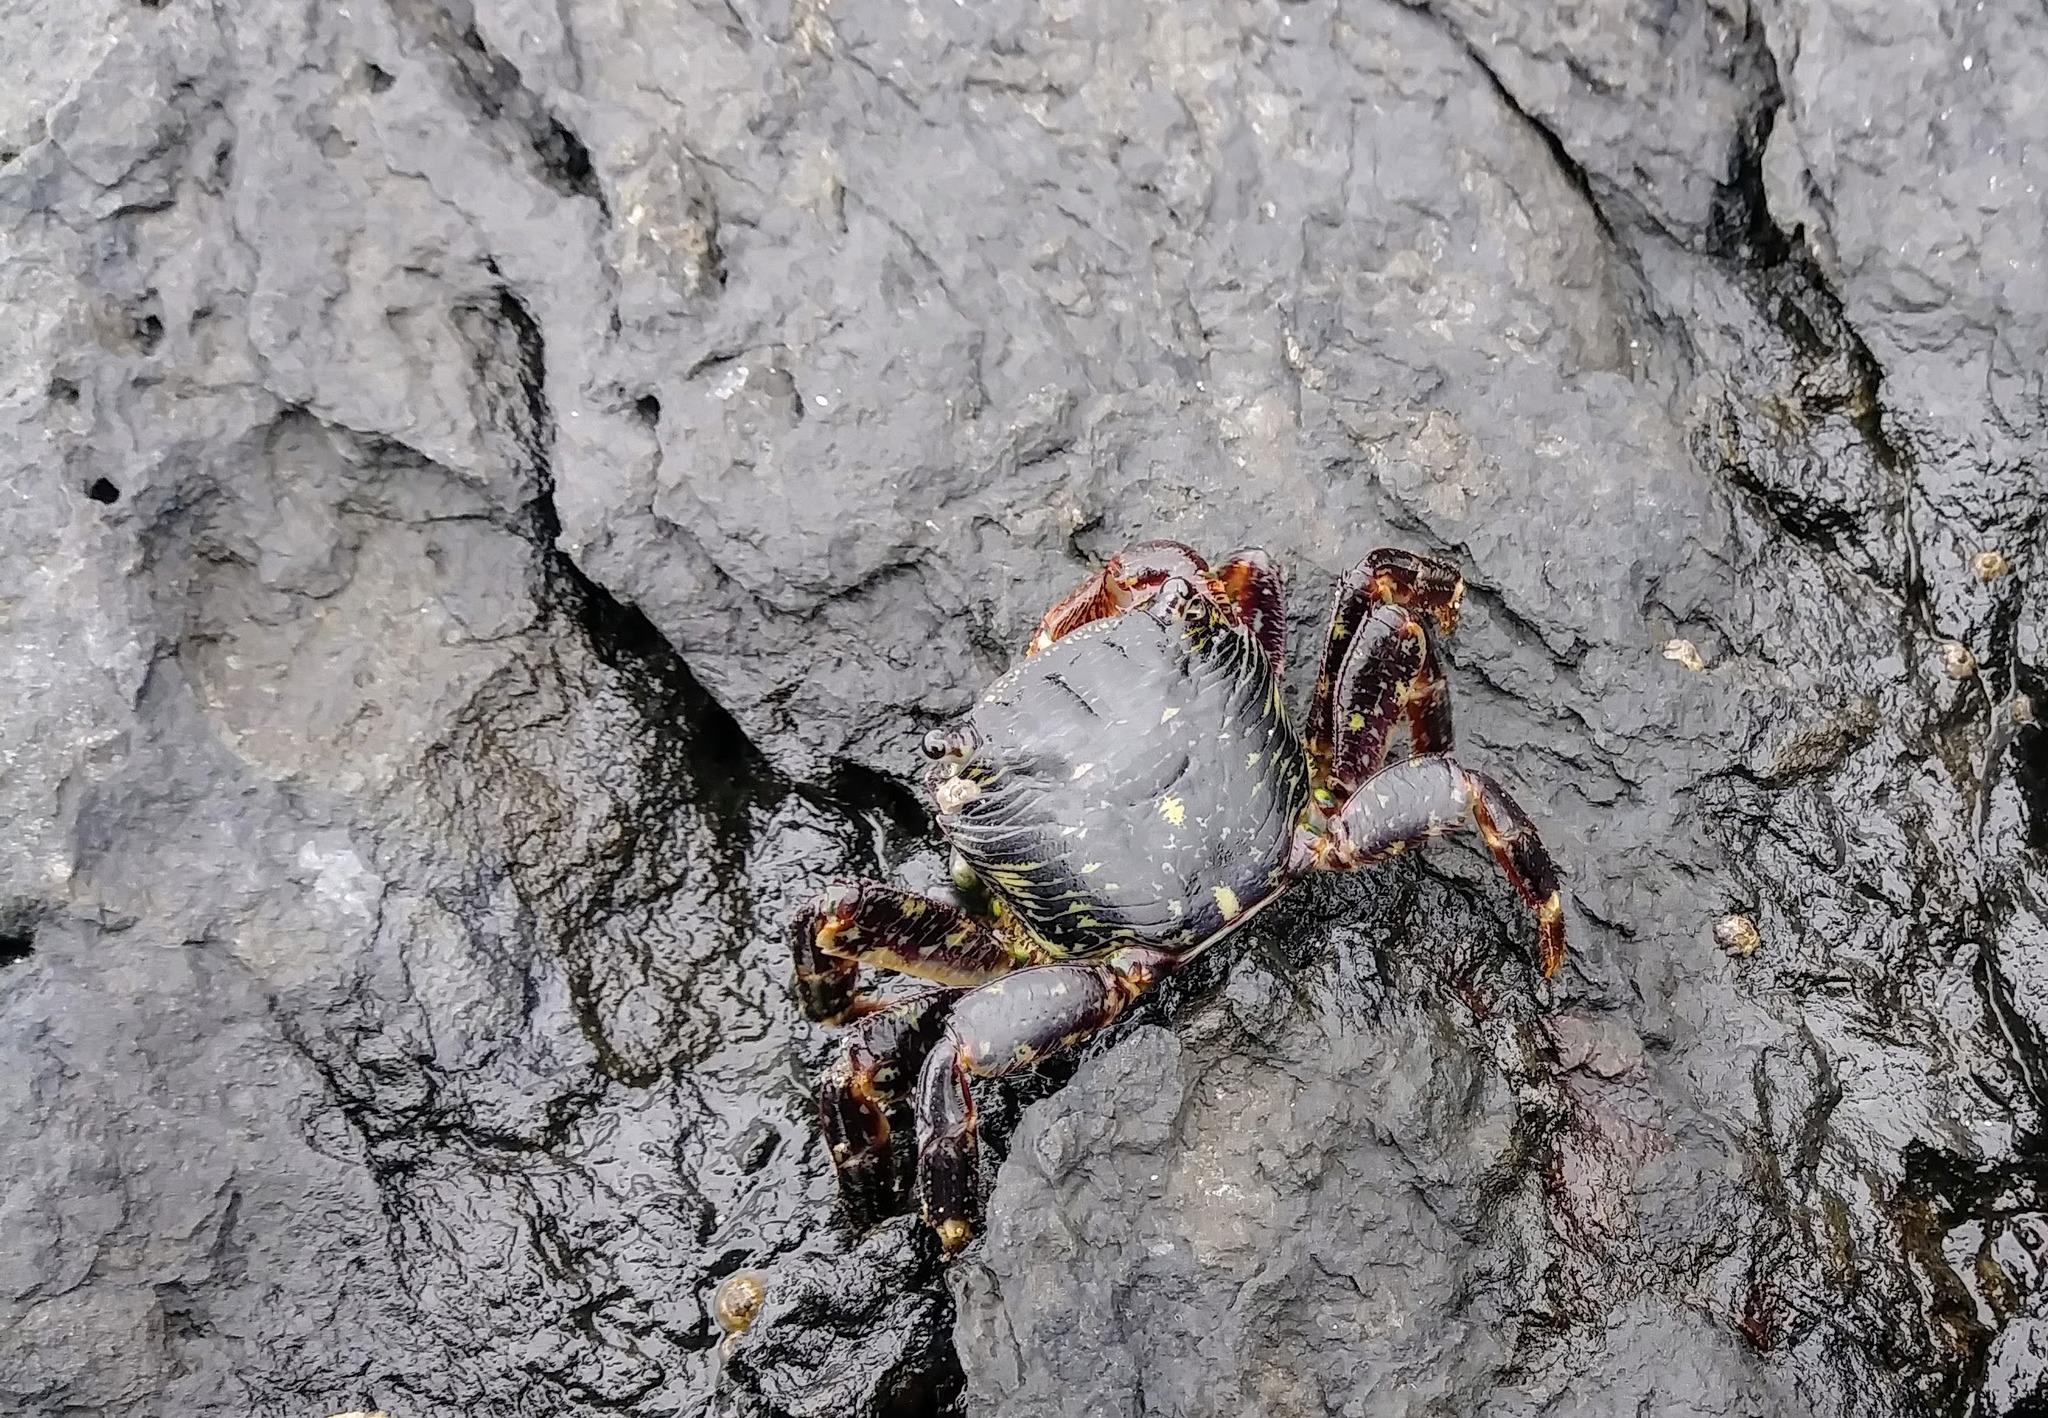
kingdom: Animalia
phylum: Arthropoda
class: Malacostraca
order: Decapoda
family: Grapsidae
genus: Pachygrapsus
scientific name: Pachygrapsus crassipes
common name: Striped shore crab
